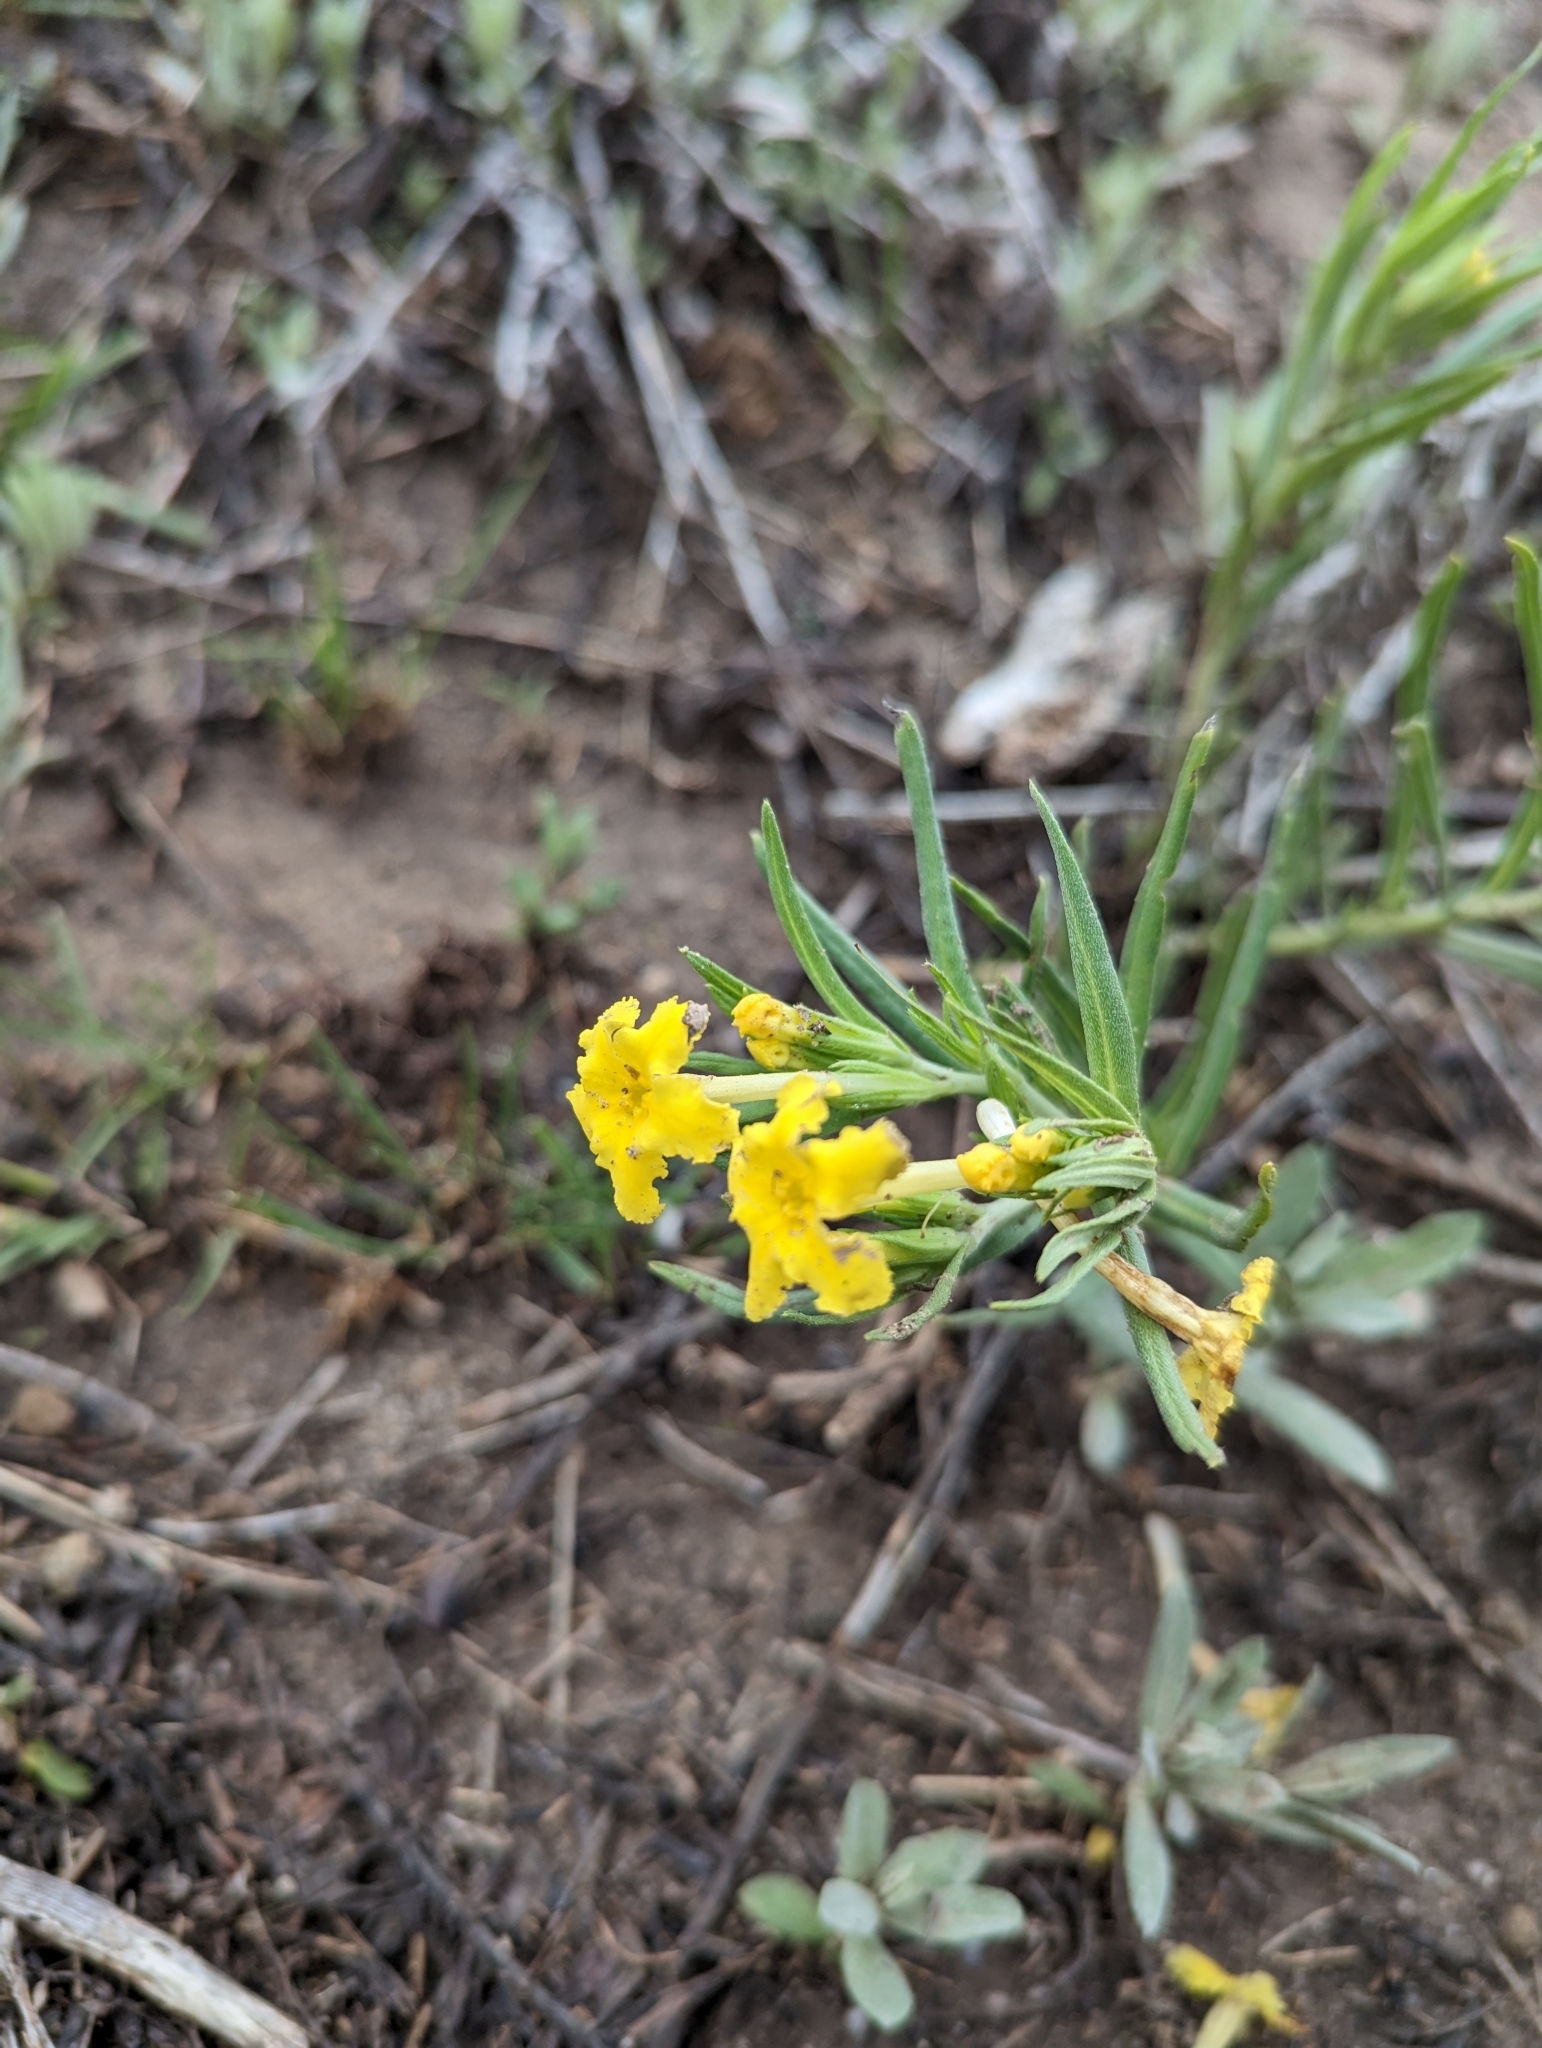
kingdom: Plantae
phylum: Tracheophyta
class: Magnoliopsida
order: Boraginales
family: Boraginaceae
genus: Lithospermum
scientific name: Lithospermum incisum
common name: Fringed gromwell
